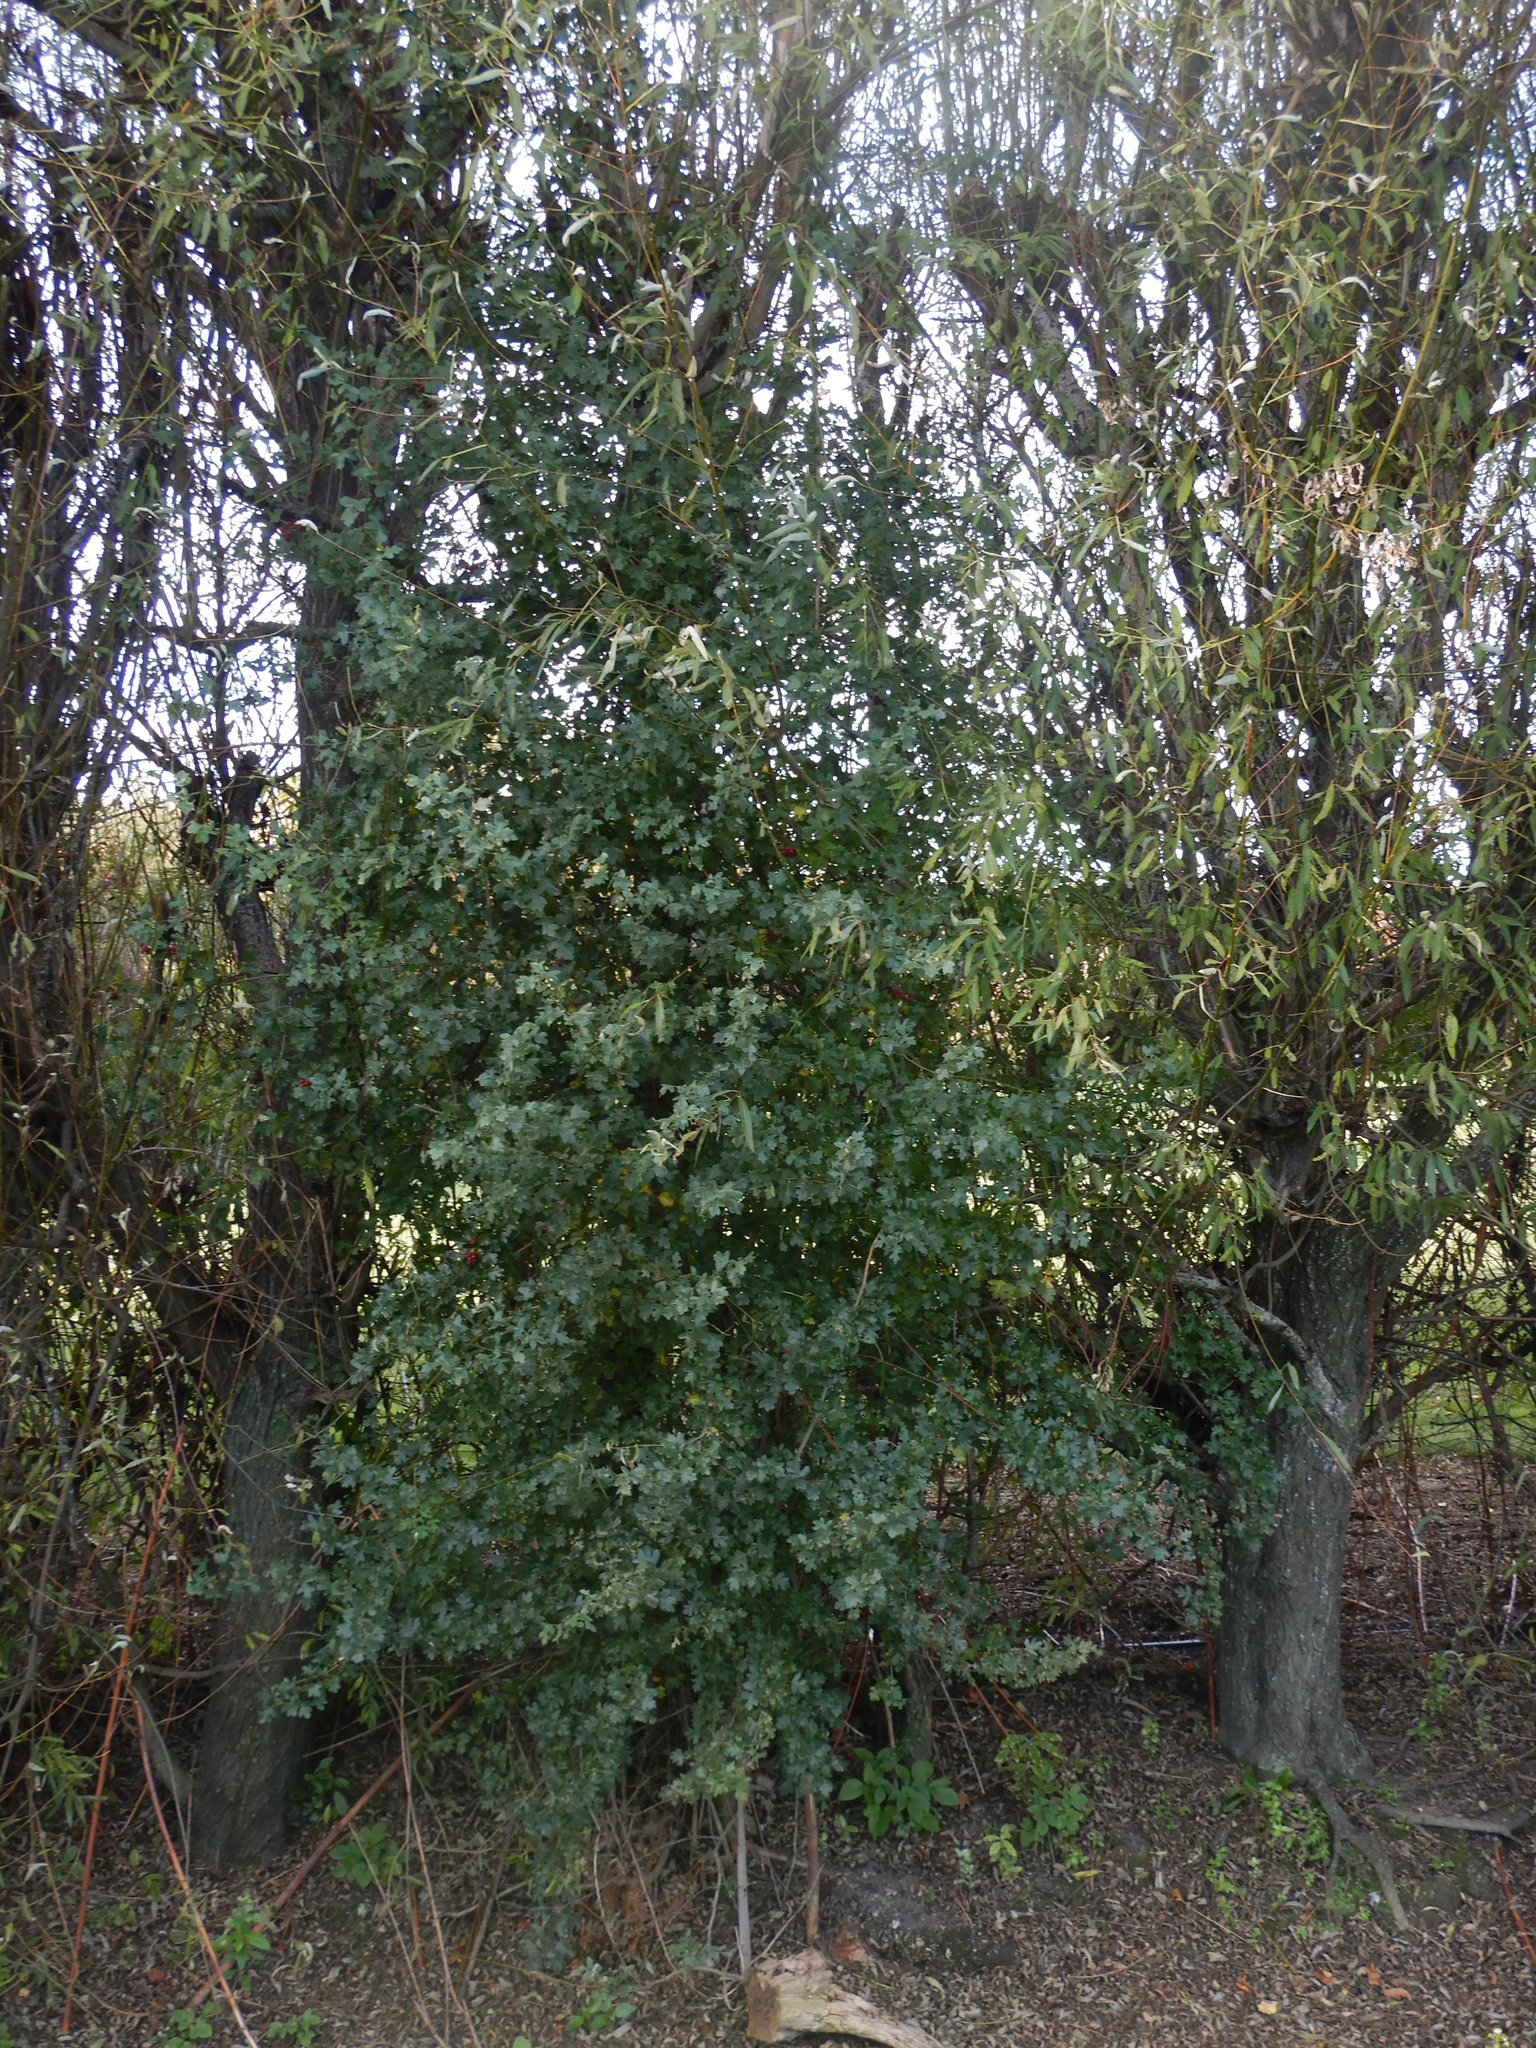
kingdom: Plantae
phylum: Tracheophyta
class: Magnoliopsida
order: Rosales
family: Rosaceae
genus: Crataegus
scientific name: Crataegus monogyna
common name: Hawthorn
